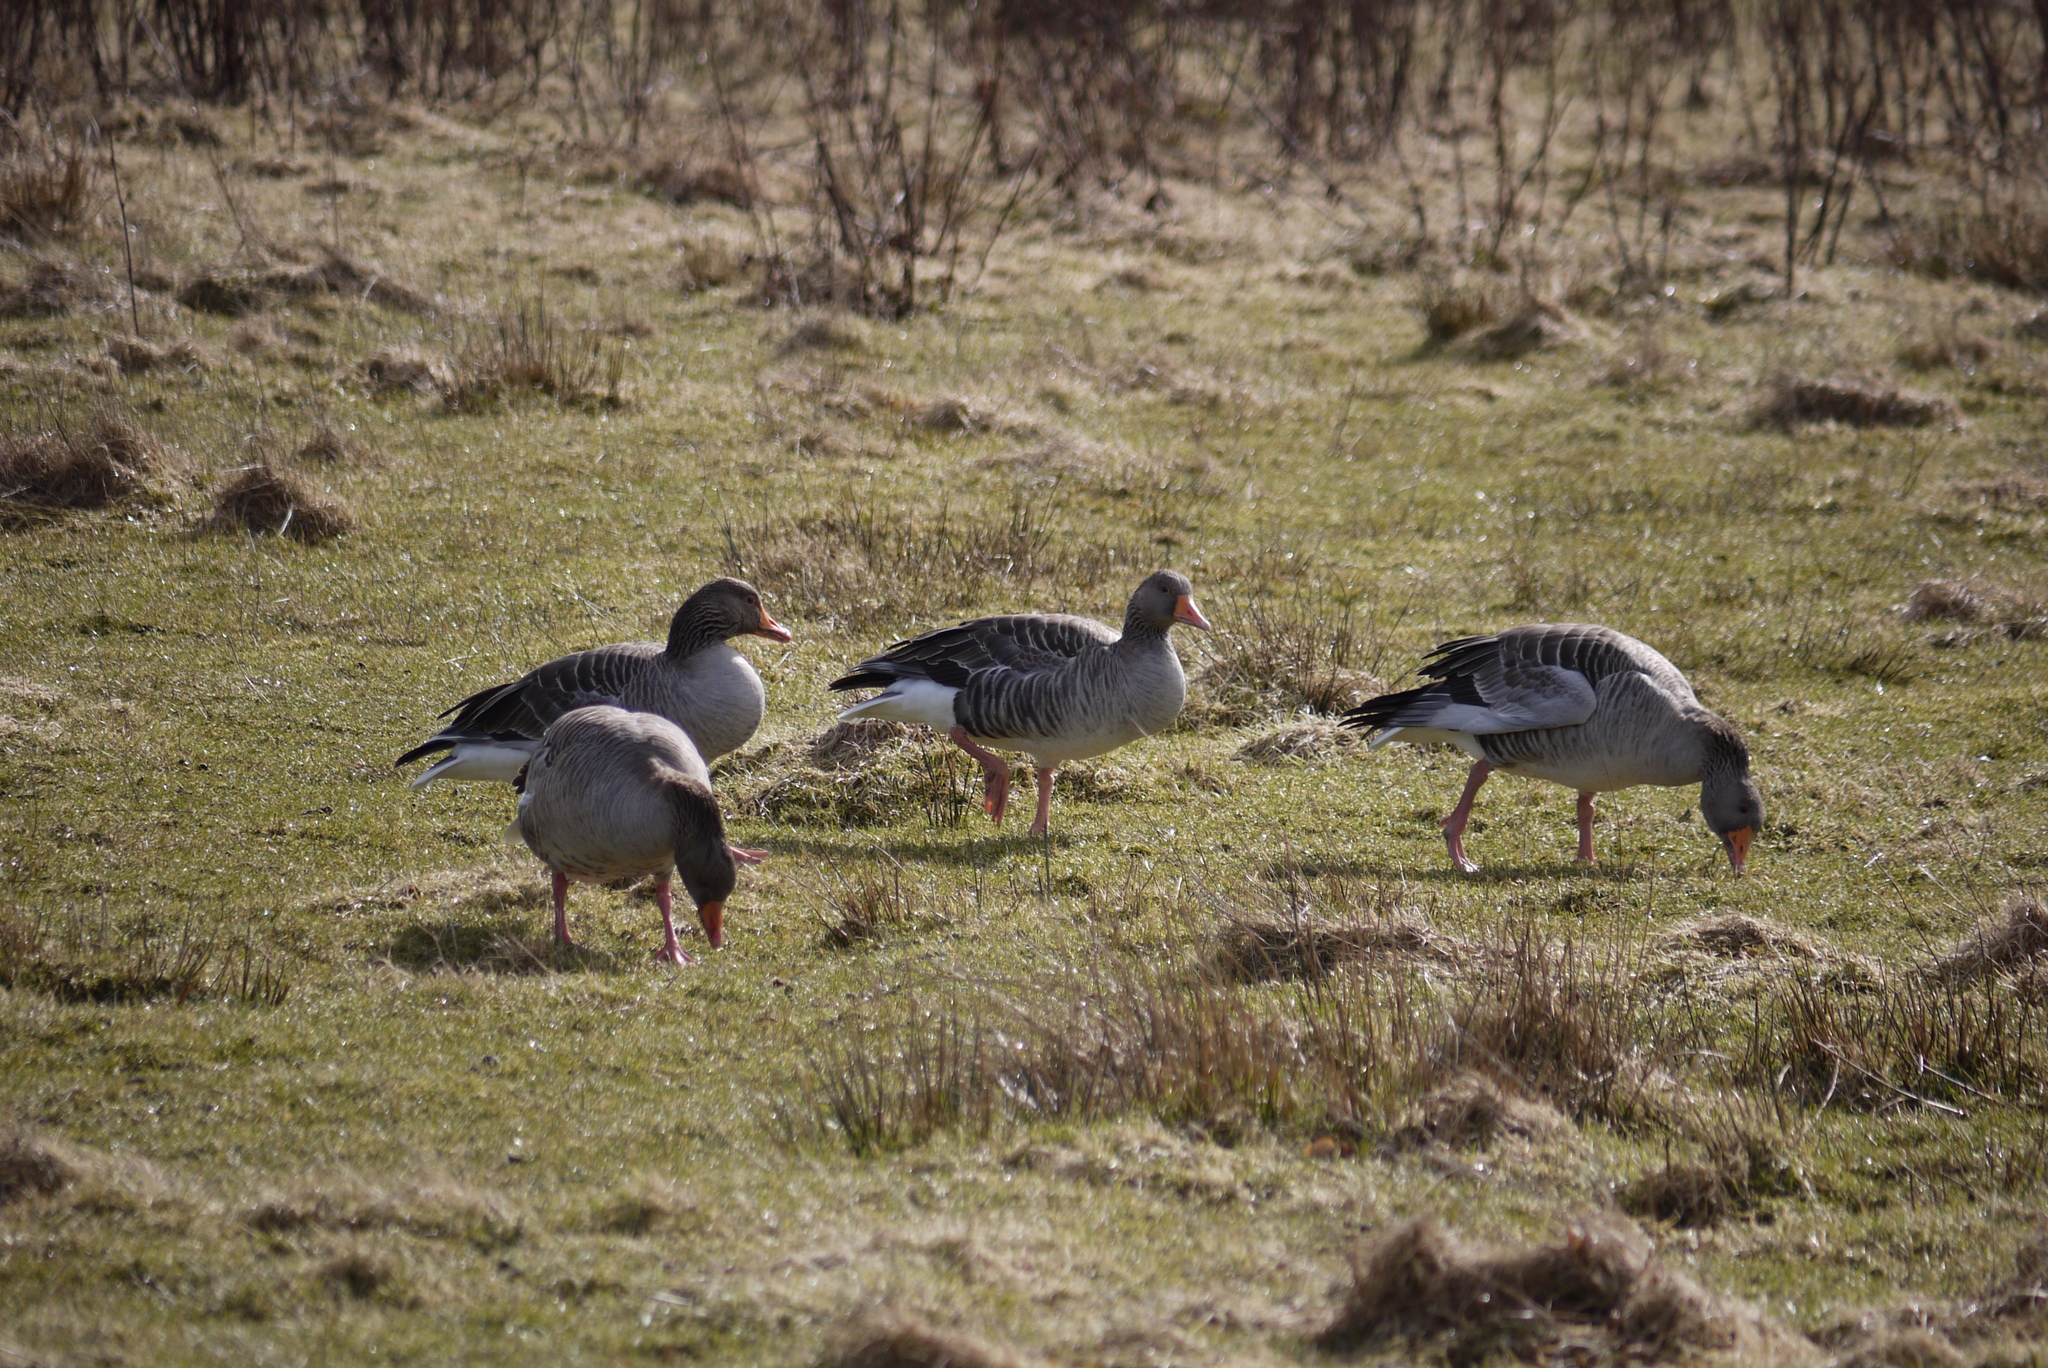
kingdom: Animalia
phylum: Chordata
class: Aves
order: Anseriformes
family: Anatidae
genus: Anser
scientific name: Anser anser
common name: Greylag goose
